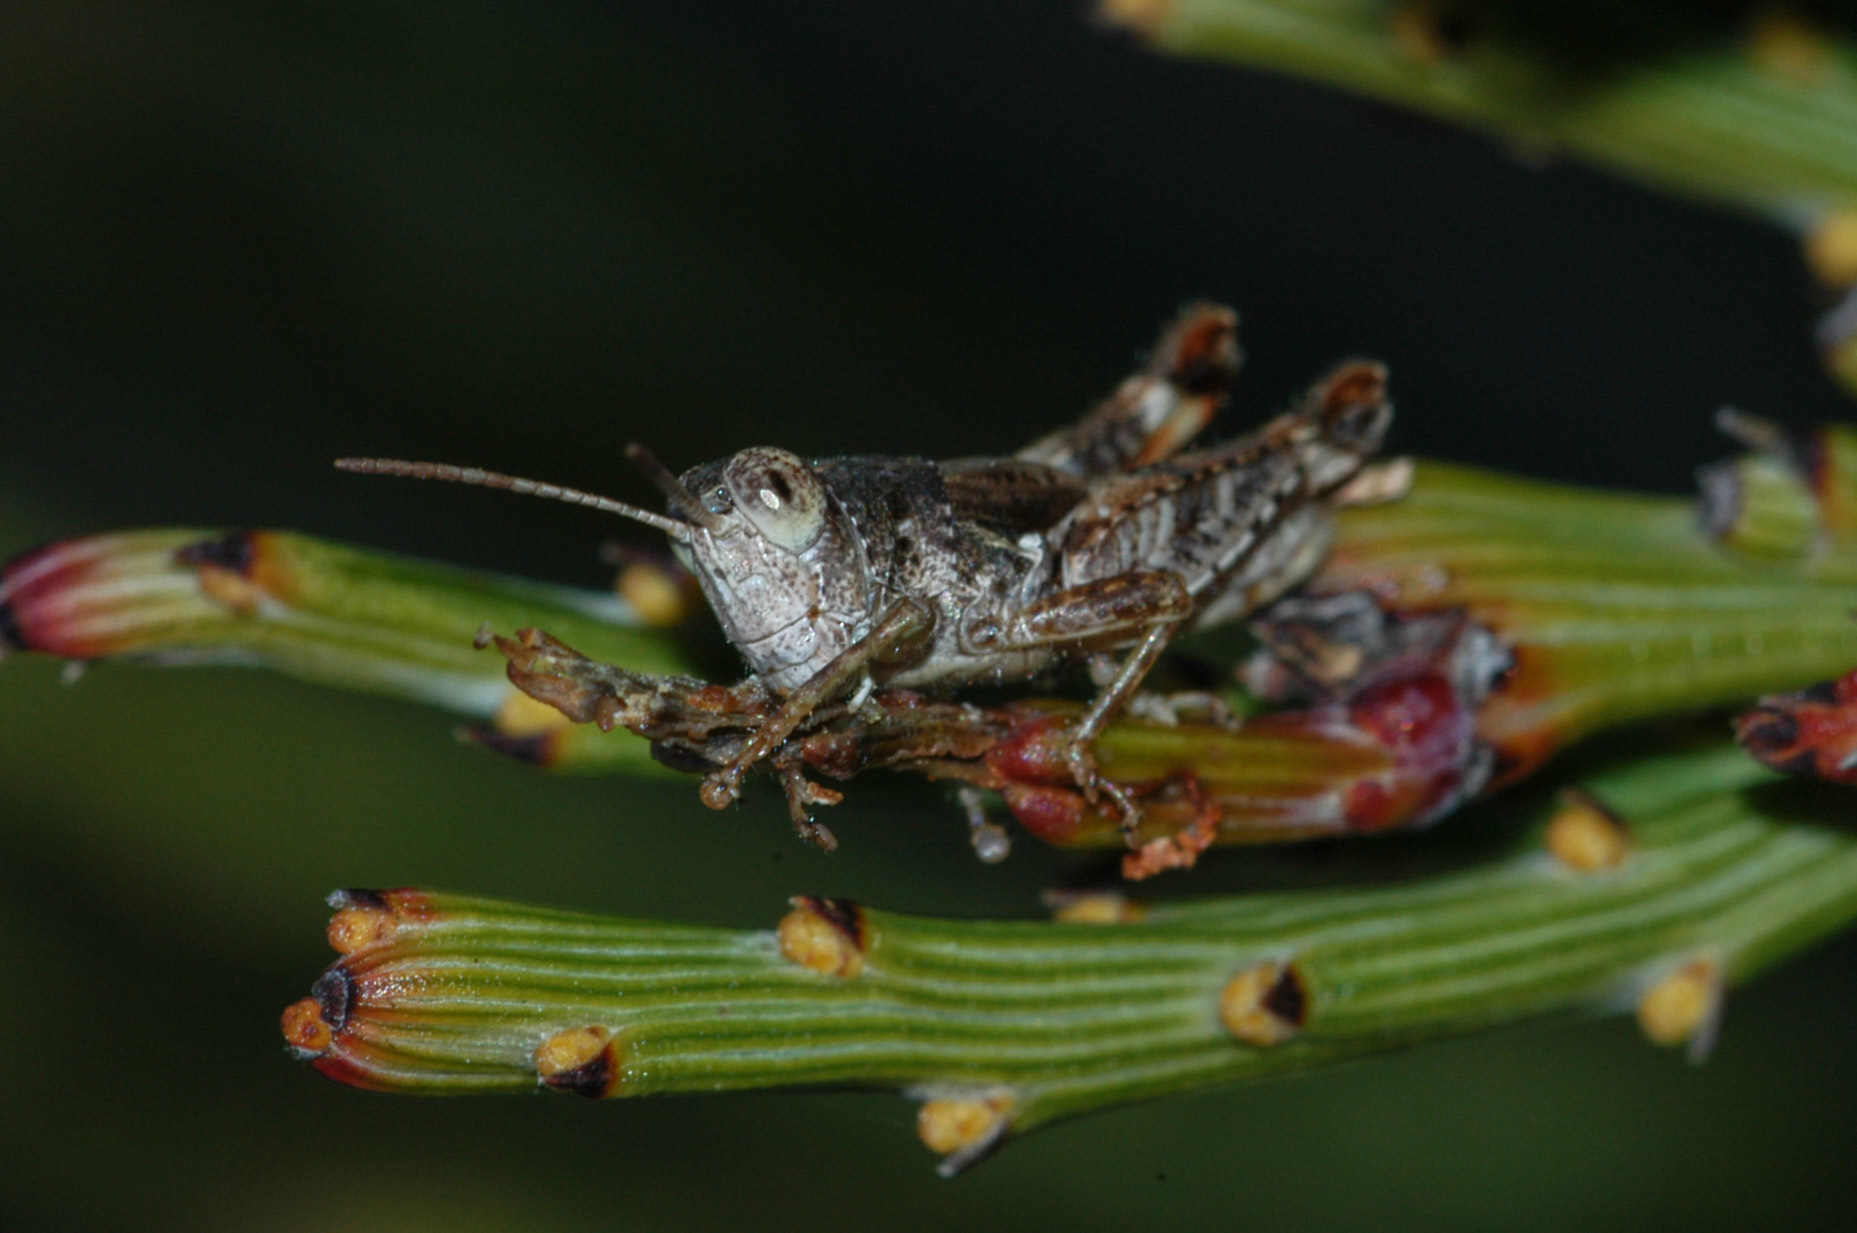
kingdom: Animalia
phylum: Arthropoda
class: Insecta
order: Orthoptera
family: Acrididae
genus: Brachyexarna
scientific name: Brachyexarna lobipennis
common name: Stripe-winged meadow grasshopper
